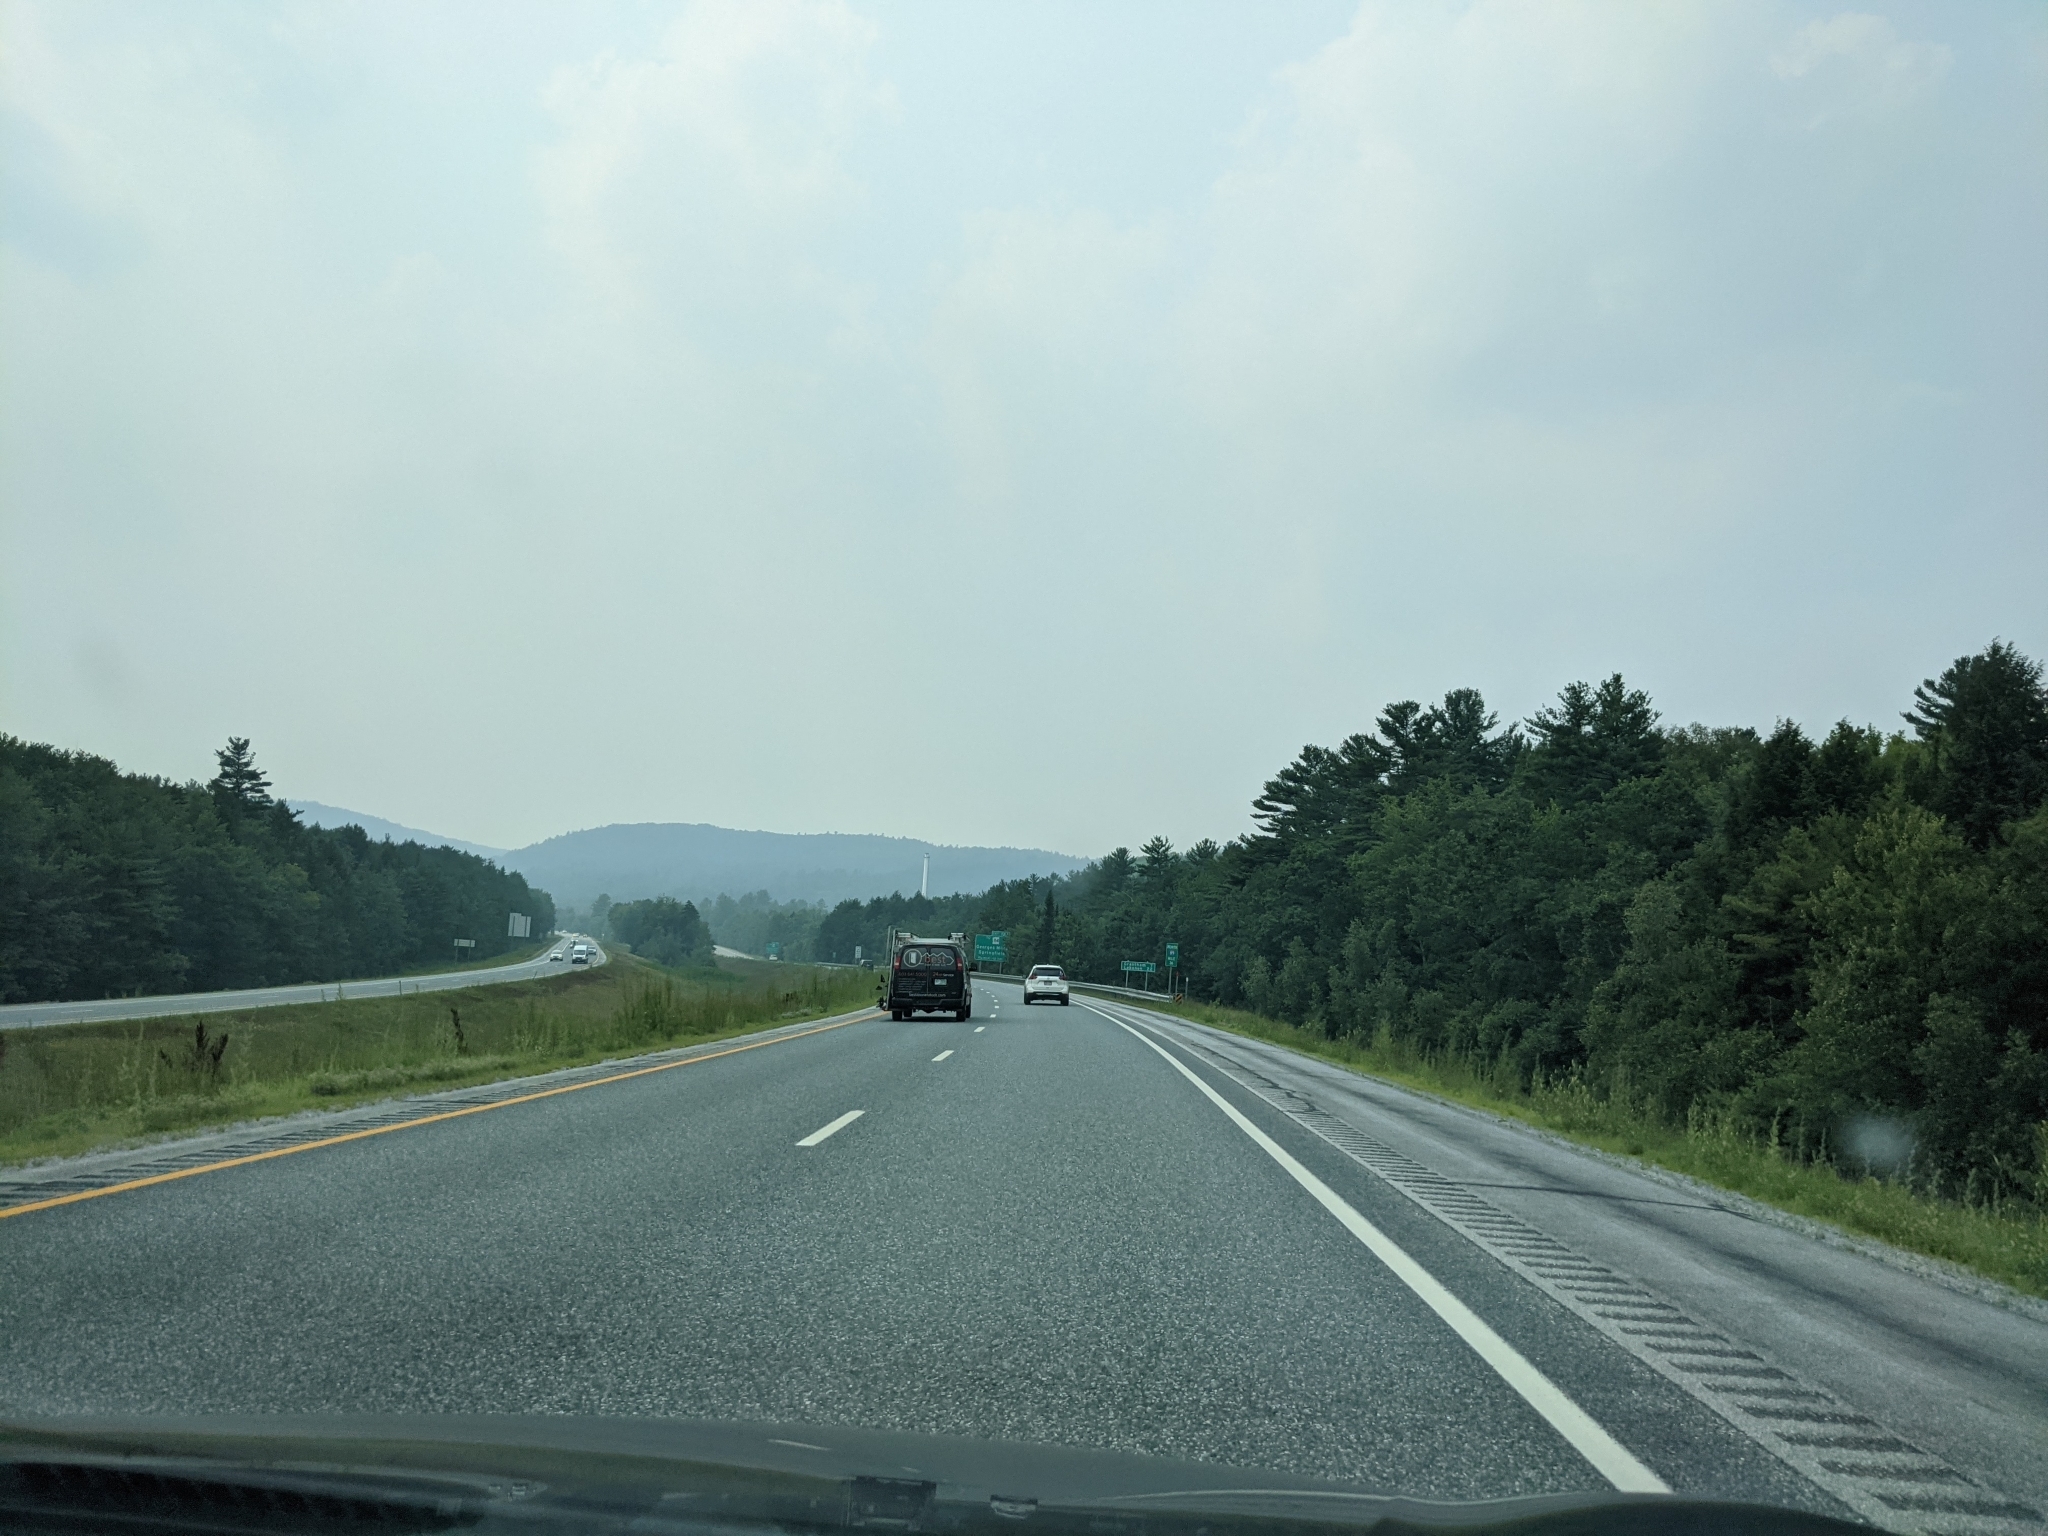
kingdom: Plantae
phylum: Tracheophyta
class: Pinopsida
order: Pinales
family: Pinaceae
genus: Pinus
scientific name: Pinus strobus
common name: Weymouth pine
